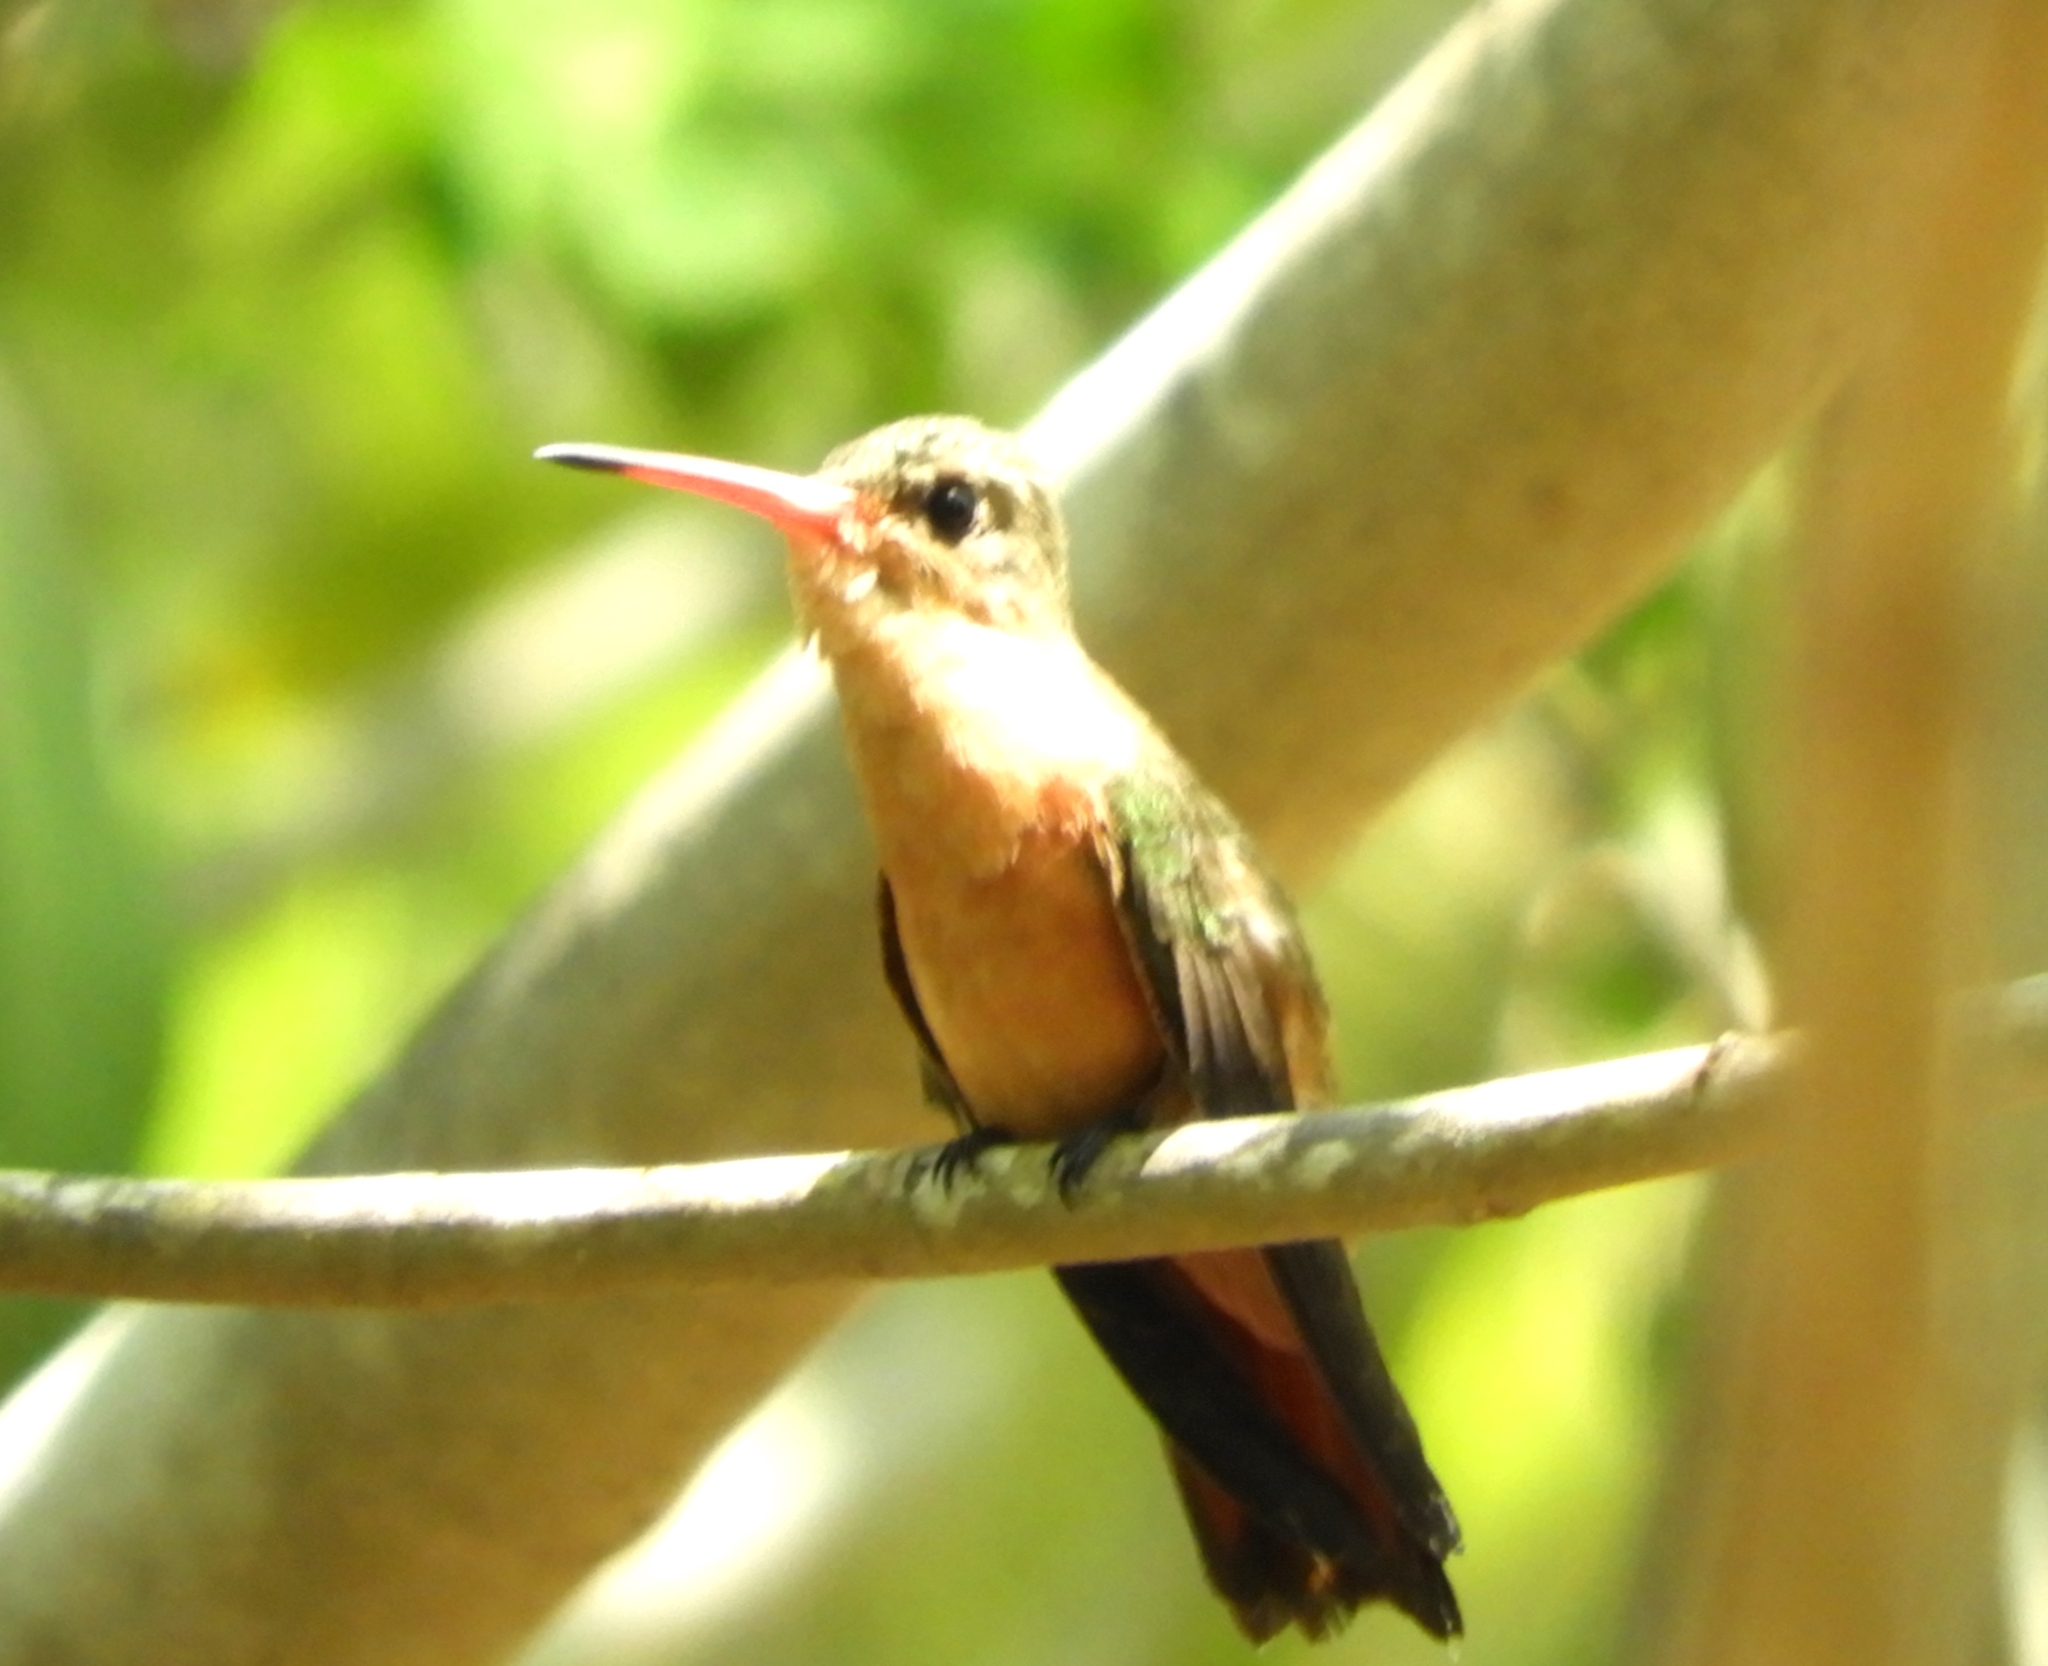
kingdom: Animalia
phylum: Chordata
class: Aves
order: Apodiformes
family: Trochilidae
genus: Amazilia
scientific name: Amazilia rutila
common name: Cinnamon hummingbird
